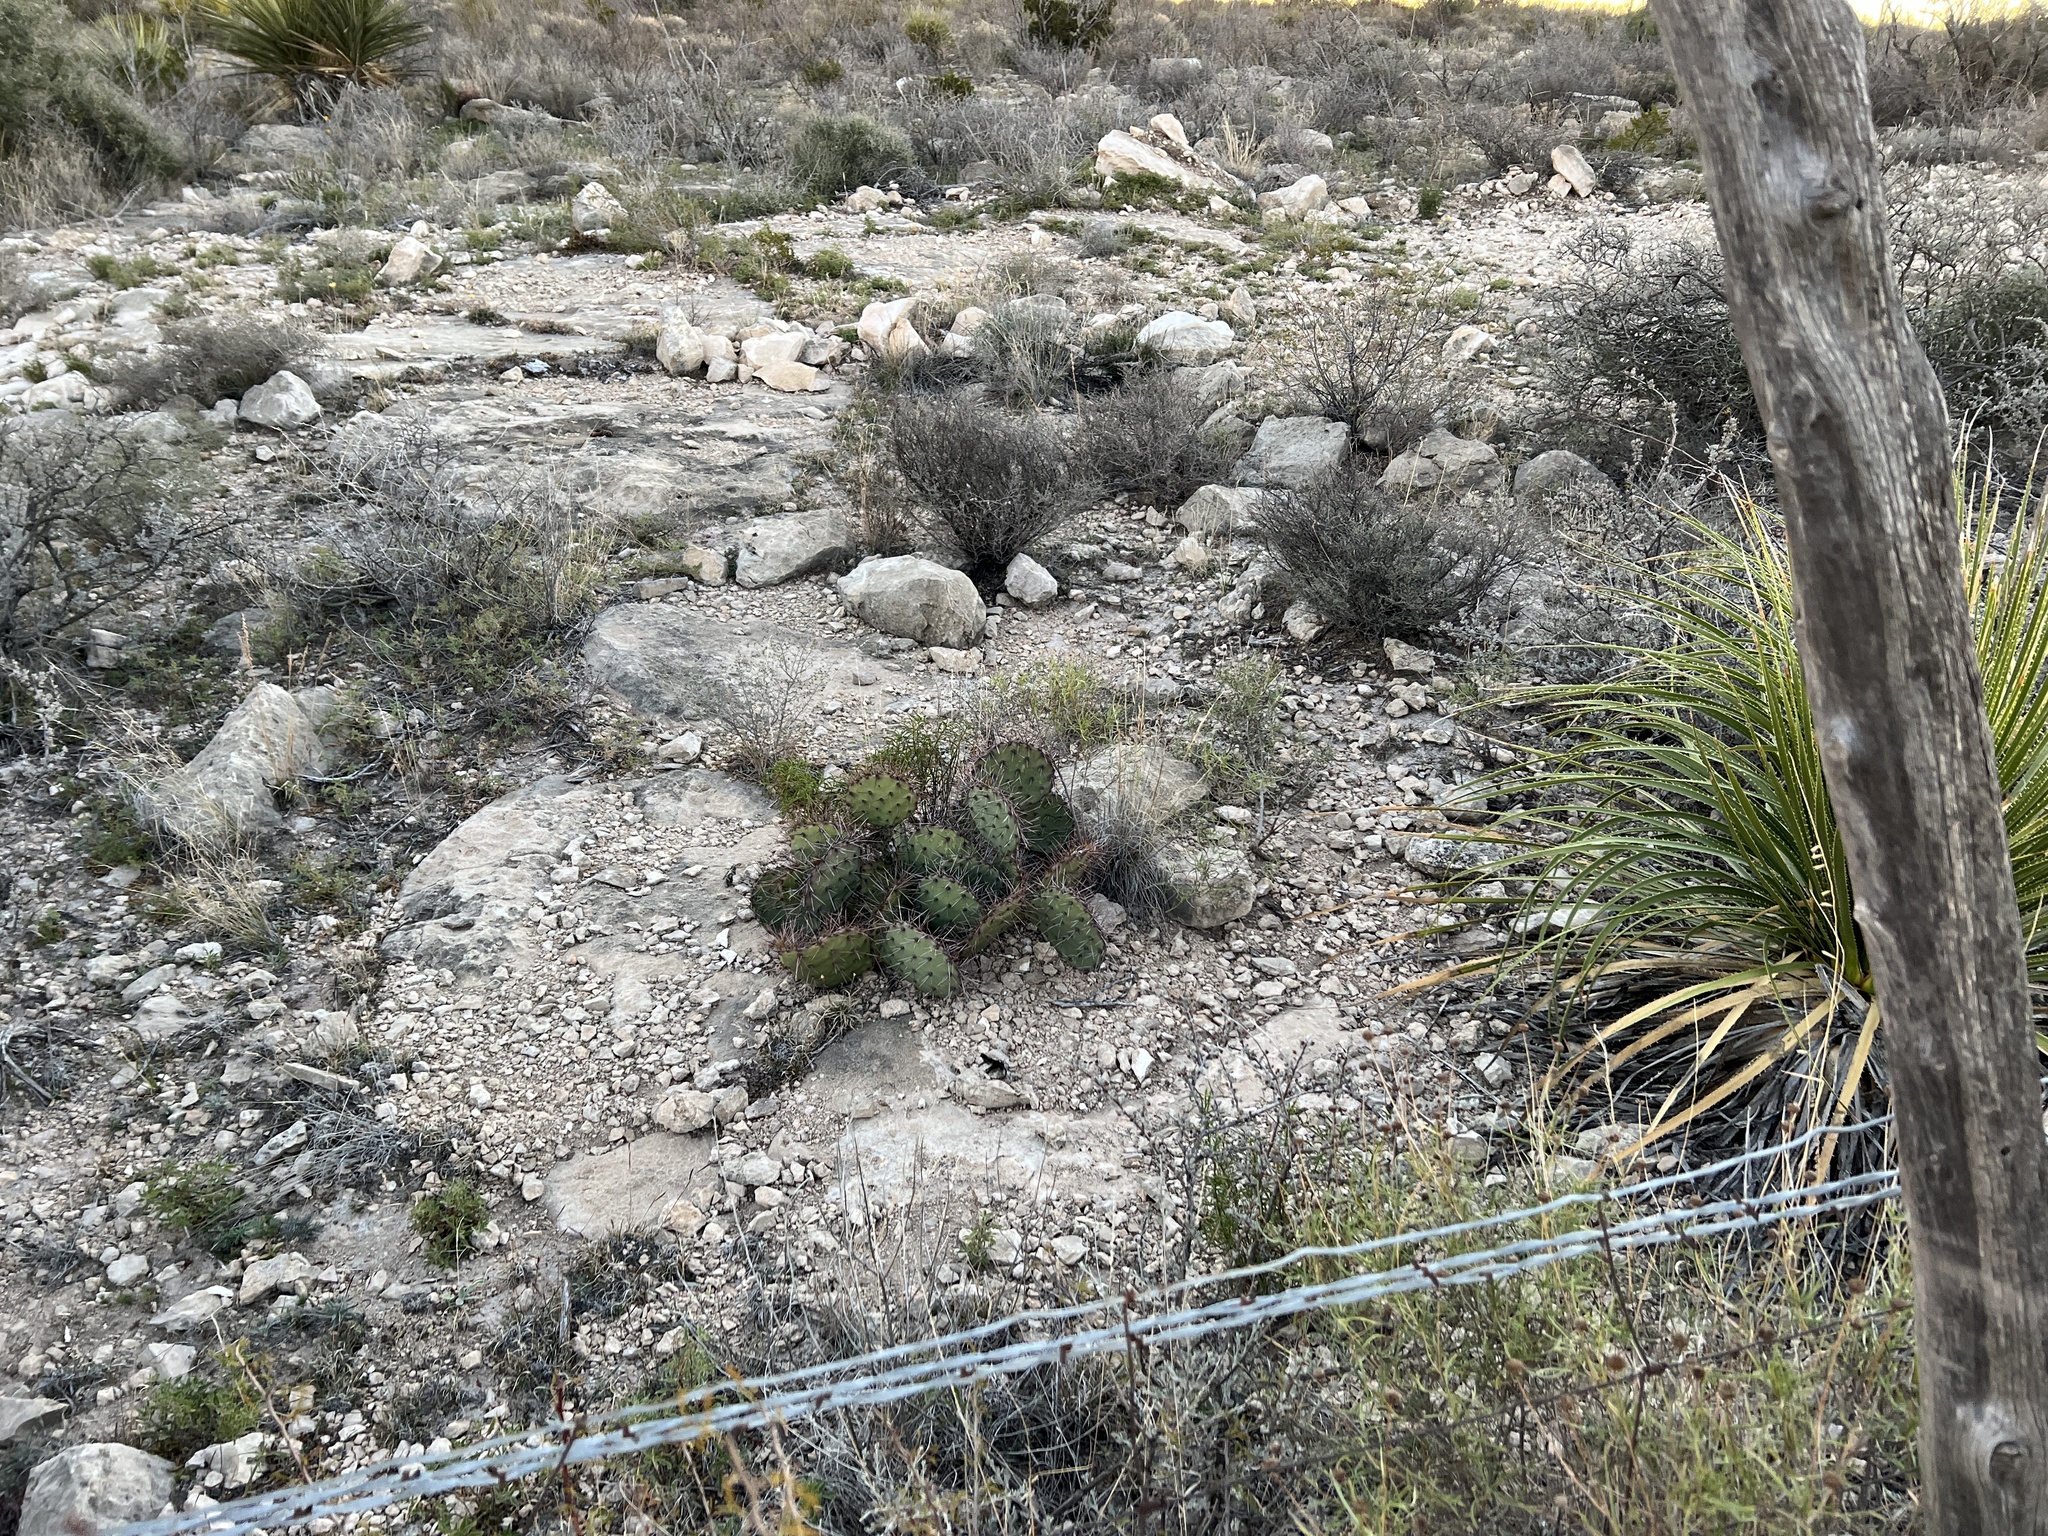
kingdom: Plantae
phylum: Tracheophyta
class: Magnoliopsida
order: Caryophyllales
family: Cactaceae
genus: Opuntia
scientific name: Opuntia phaeacantha
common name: New mexico prickly-pear
